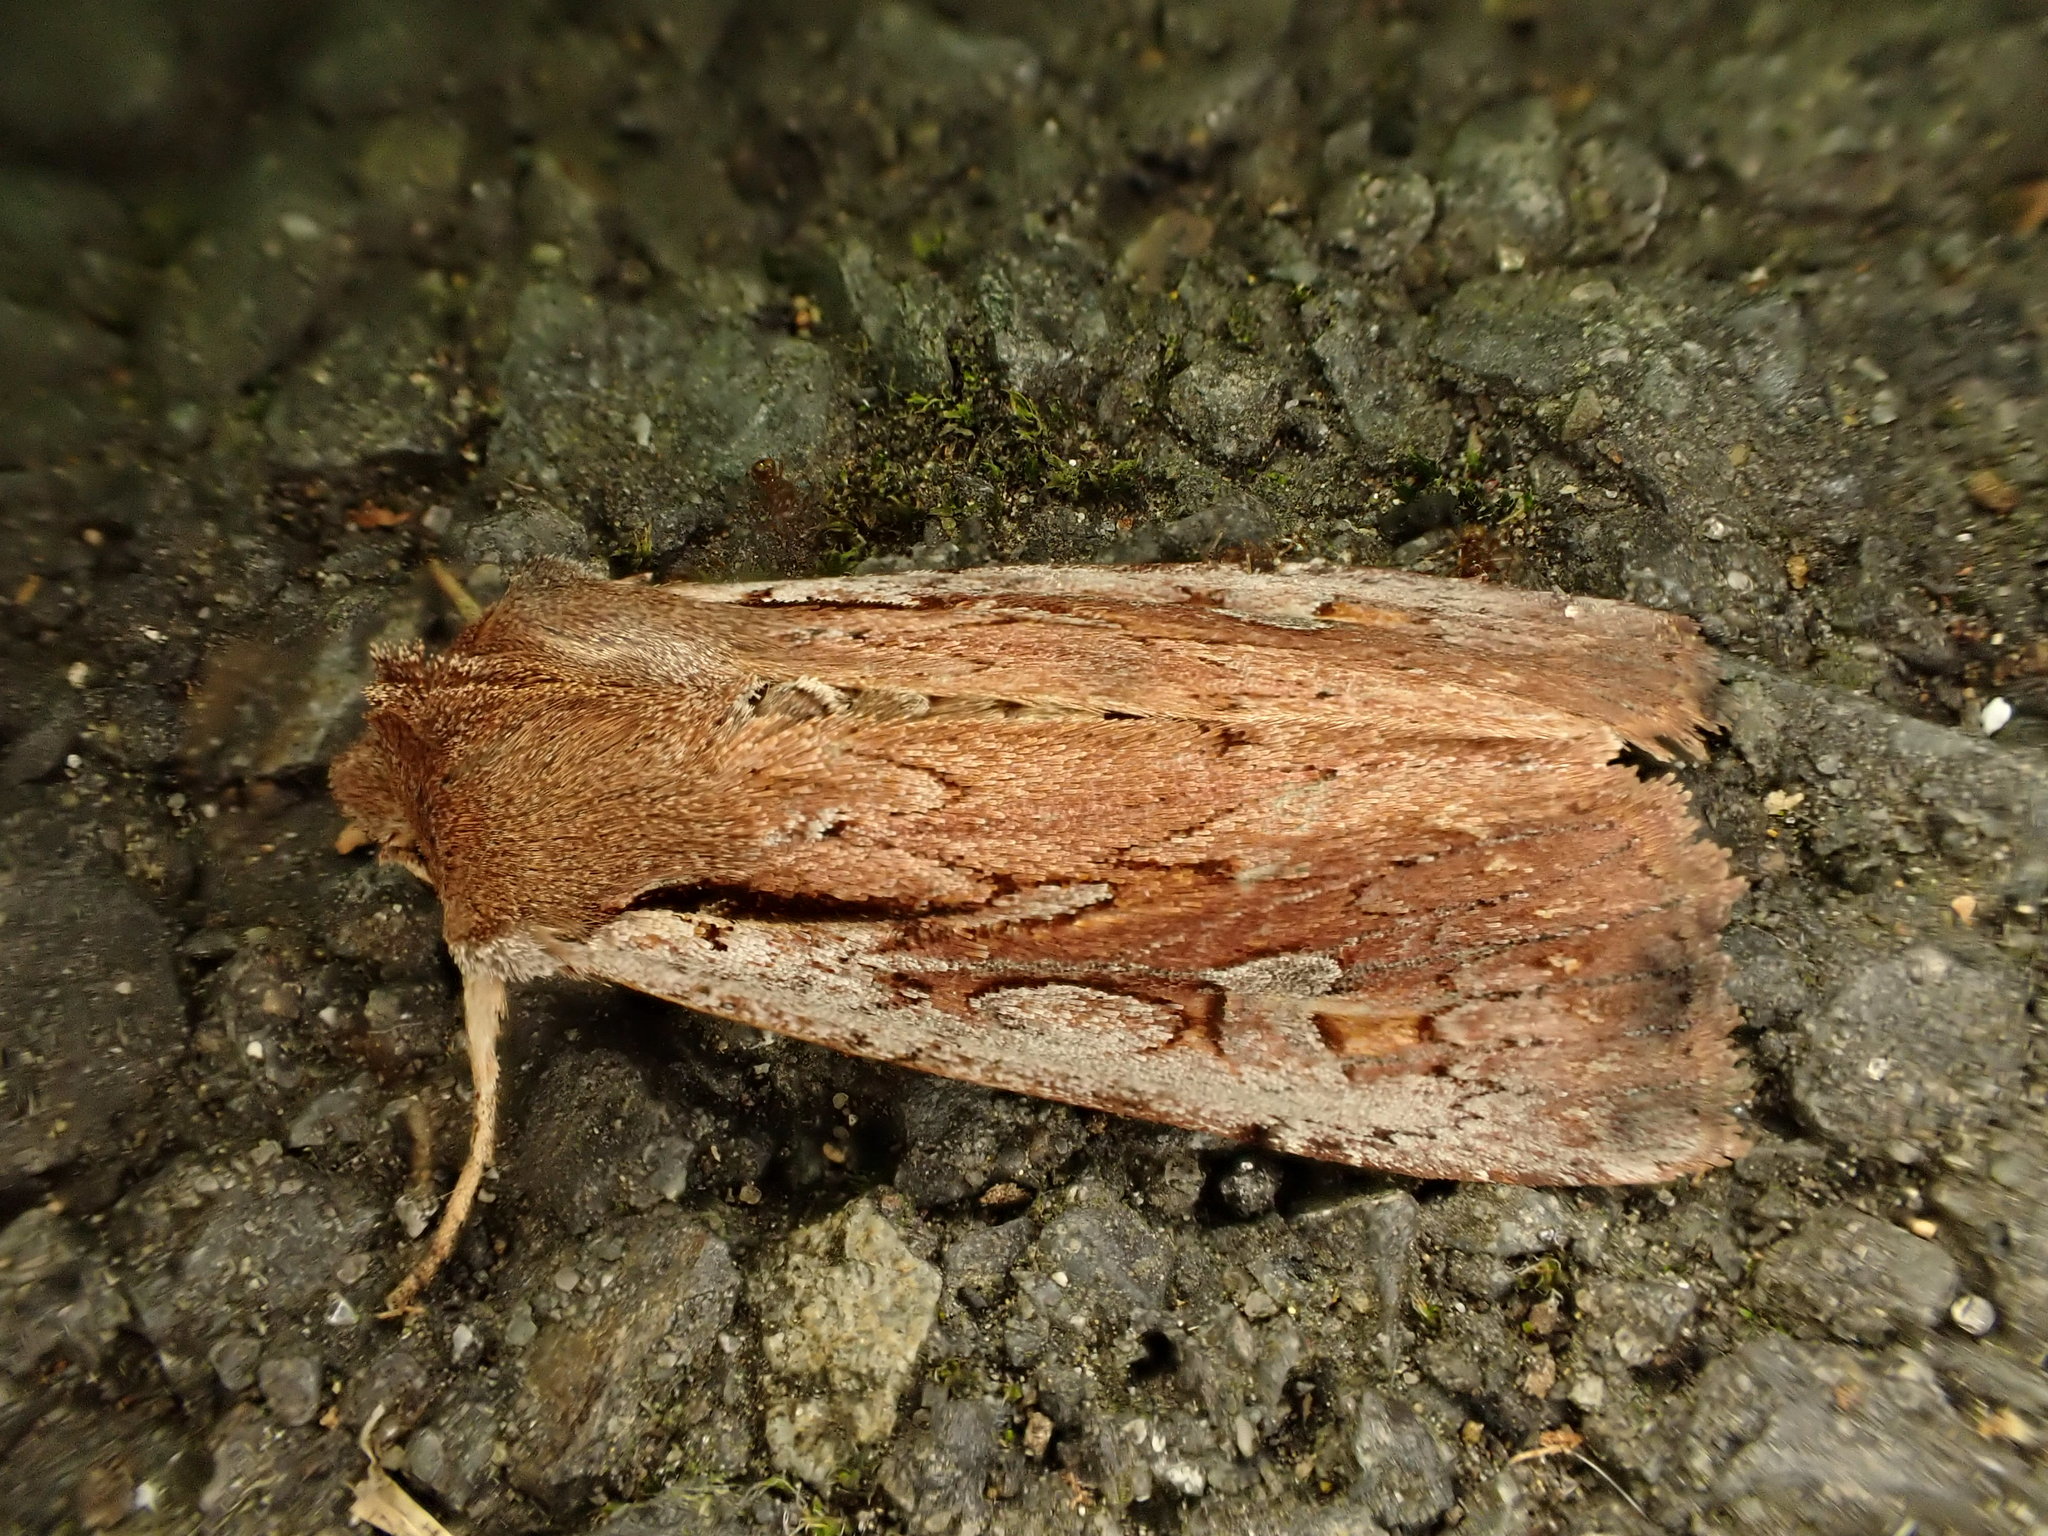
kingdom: Animalia
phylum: Arthropoda
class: Insecta
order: Lepidoptera
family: Noctuidae
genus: Ichneutica
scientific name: Ichneutica atristriga
